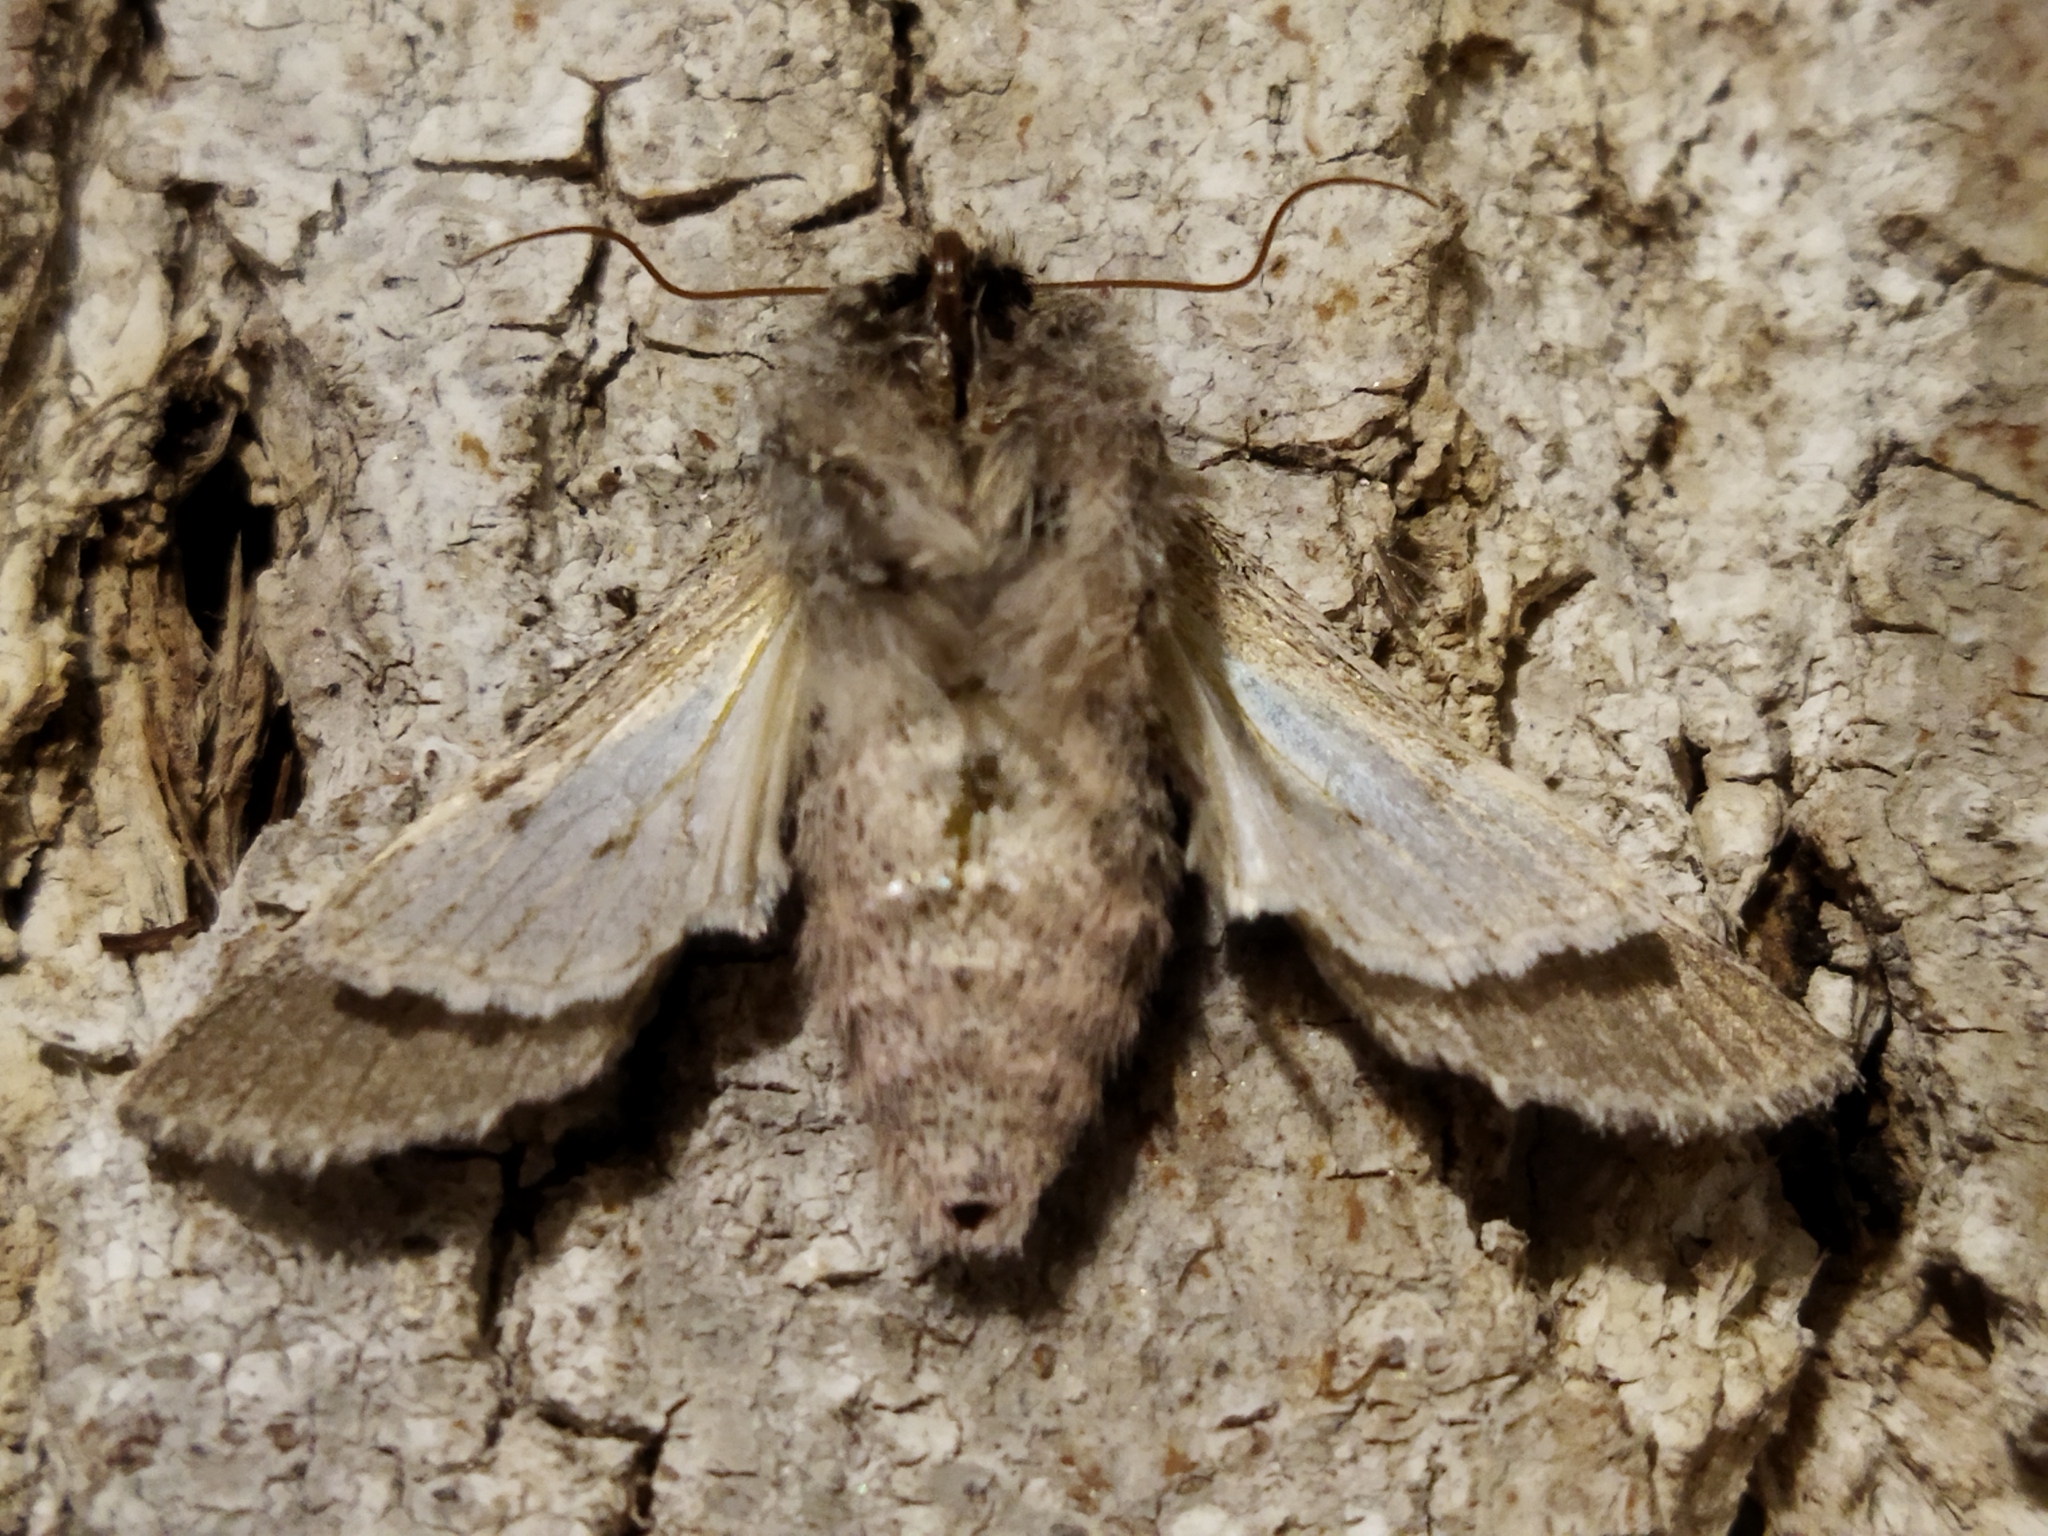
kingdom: Animalia
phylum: Arthropoda
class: Insecta
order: Lepidoptera
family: Notodontidae
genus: Dicranura
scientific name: Dicranura ulmi
